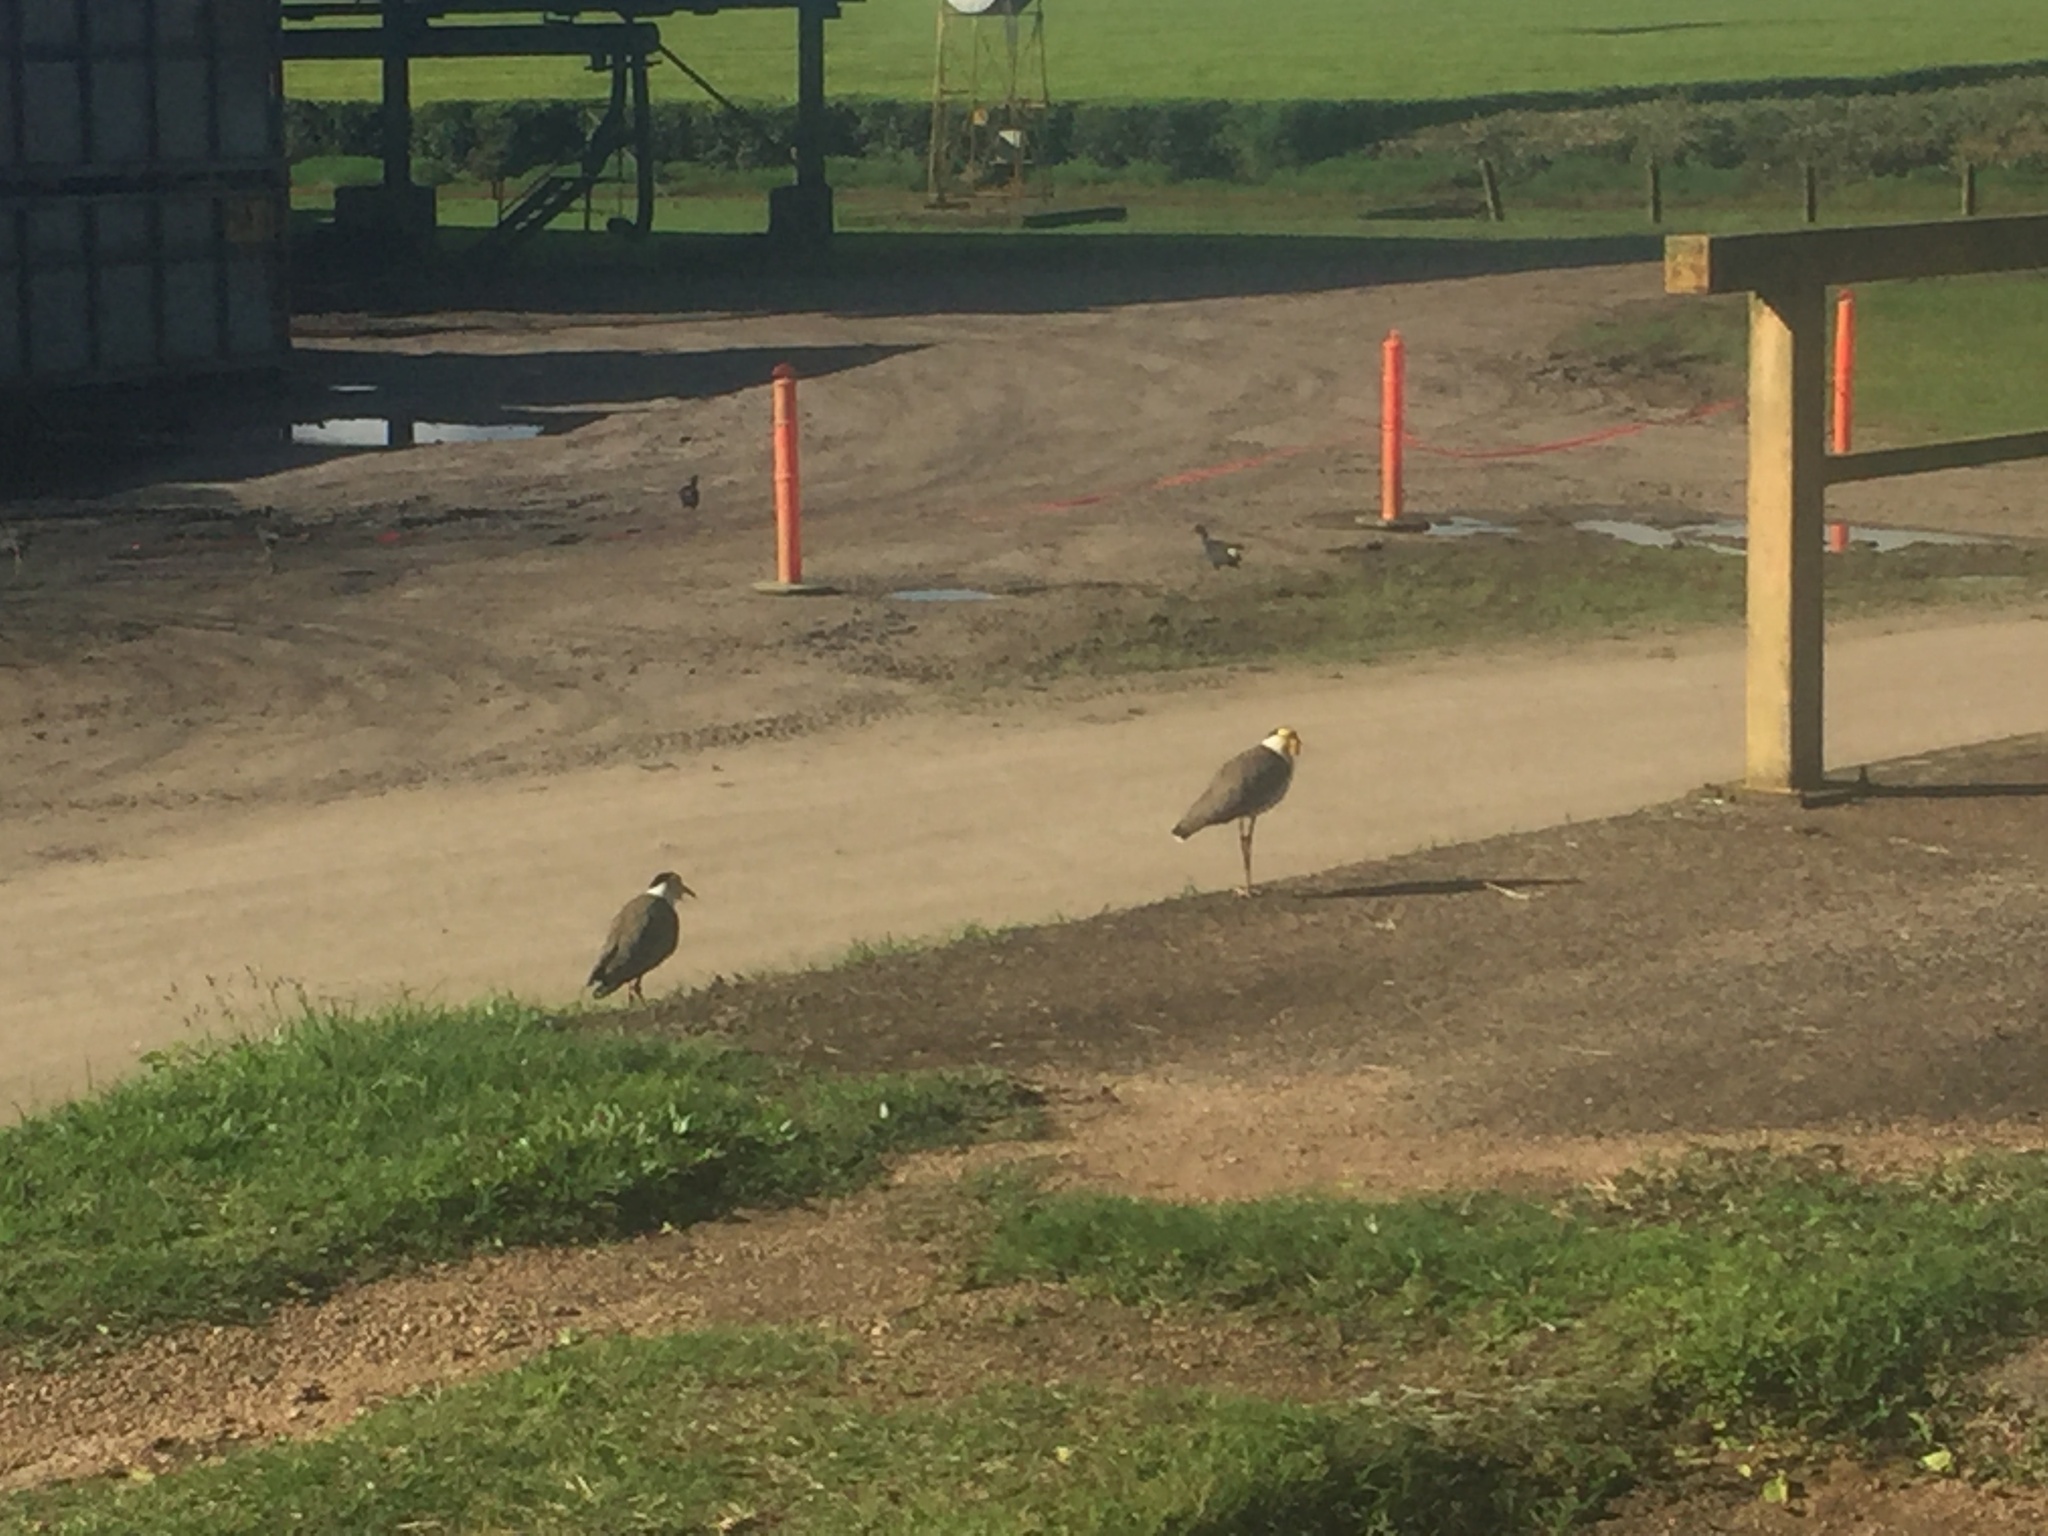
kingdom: Animalia
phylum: Chordata
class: Aves
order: Charadriiformes
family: Charadriidae
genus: Vanellus
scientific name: Vanellus miles
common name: Masked lapwing
